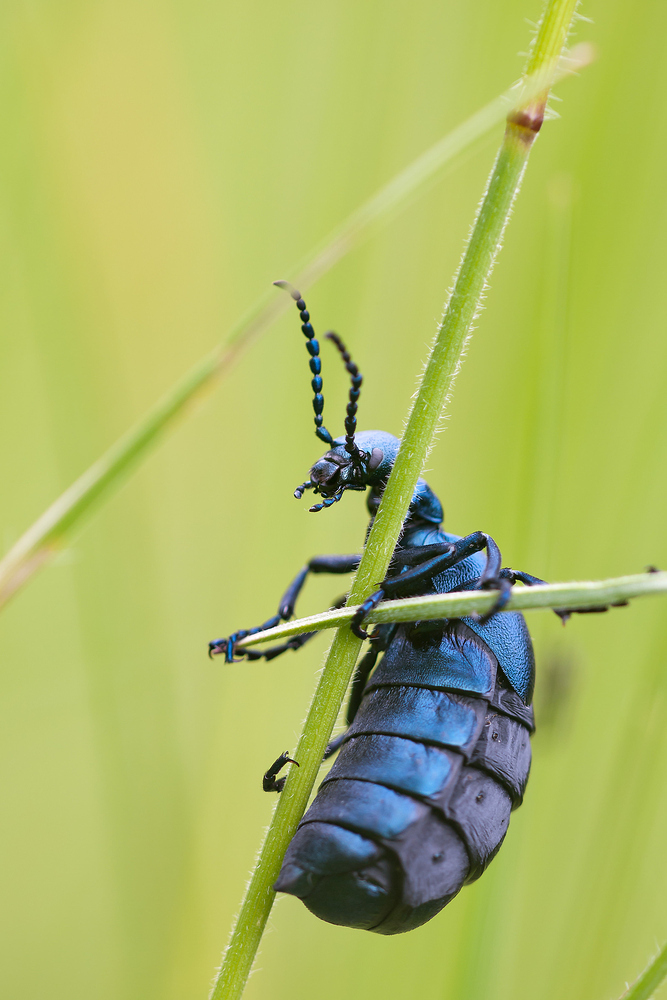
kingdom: Animalia
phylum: Arthropoda
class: Insecta
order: Coleoptera
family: Meloidae
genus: Meloe
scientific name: Meloe violaceus
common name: Violet oil-beetle
